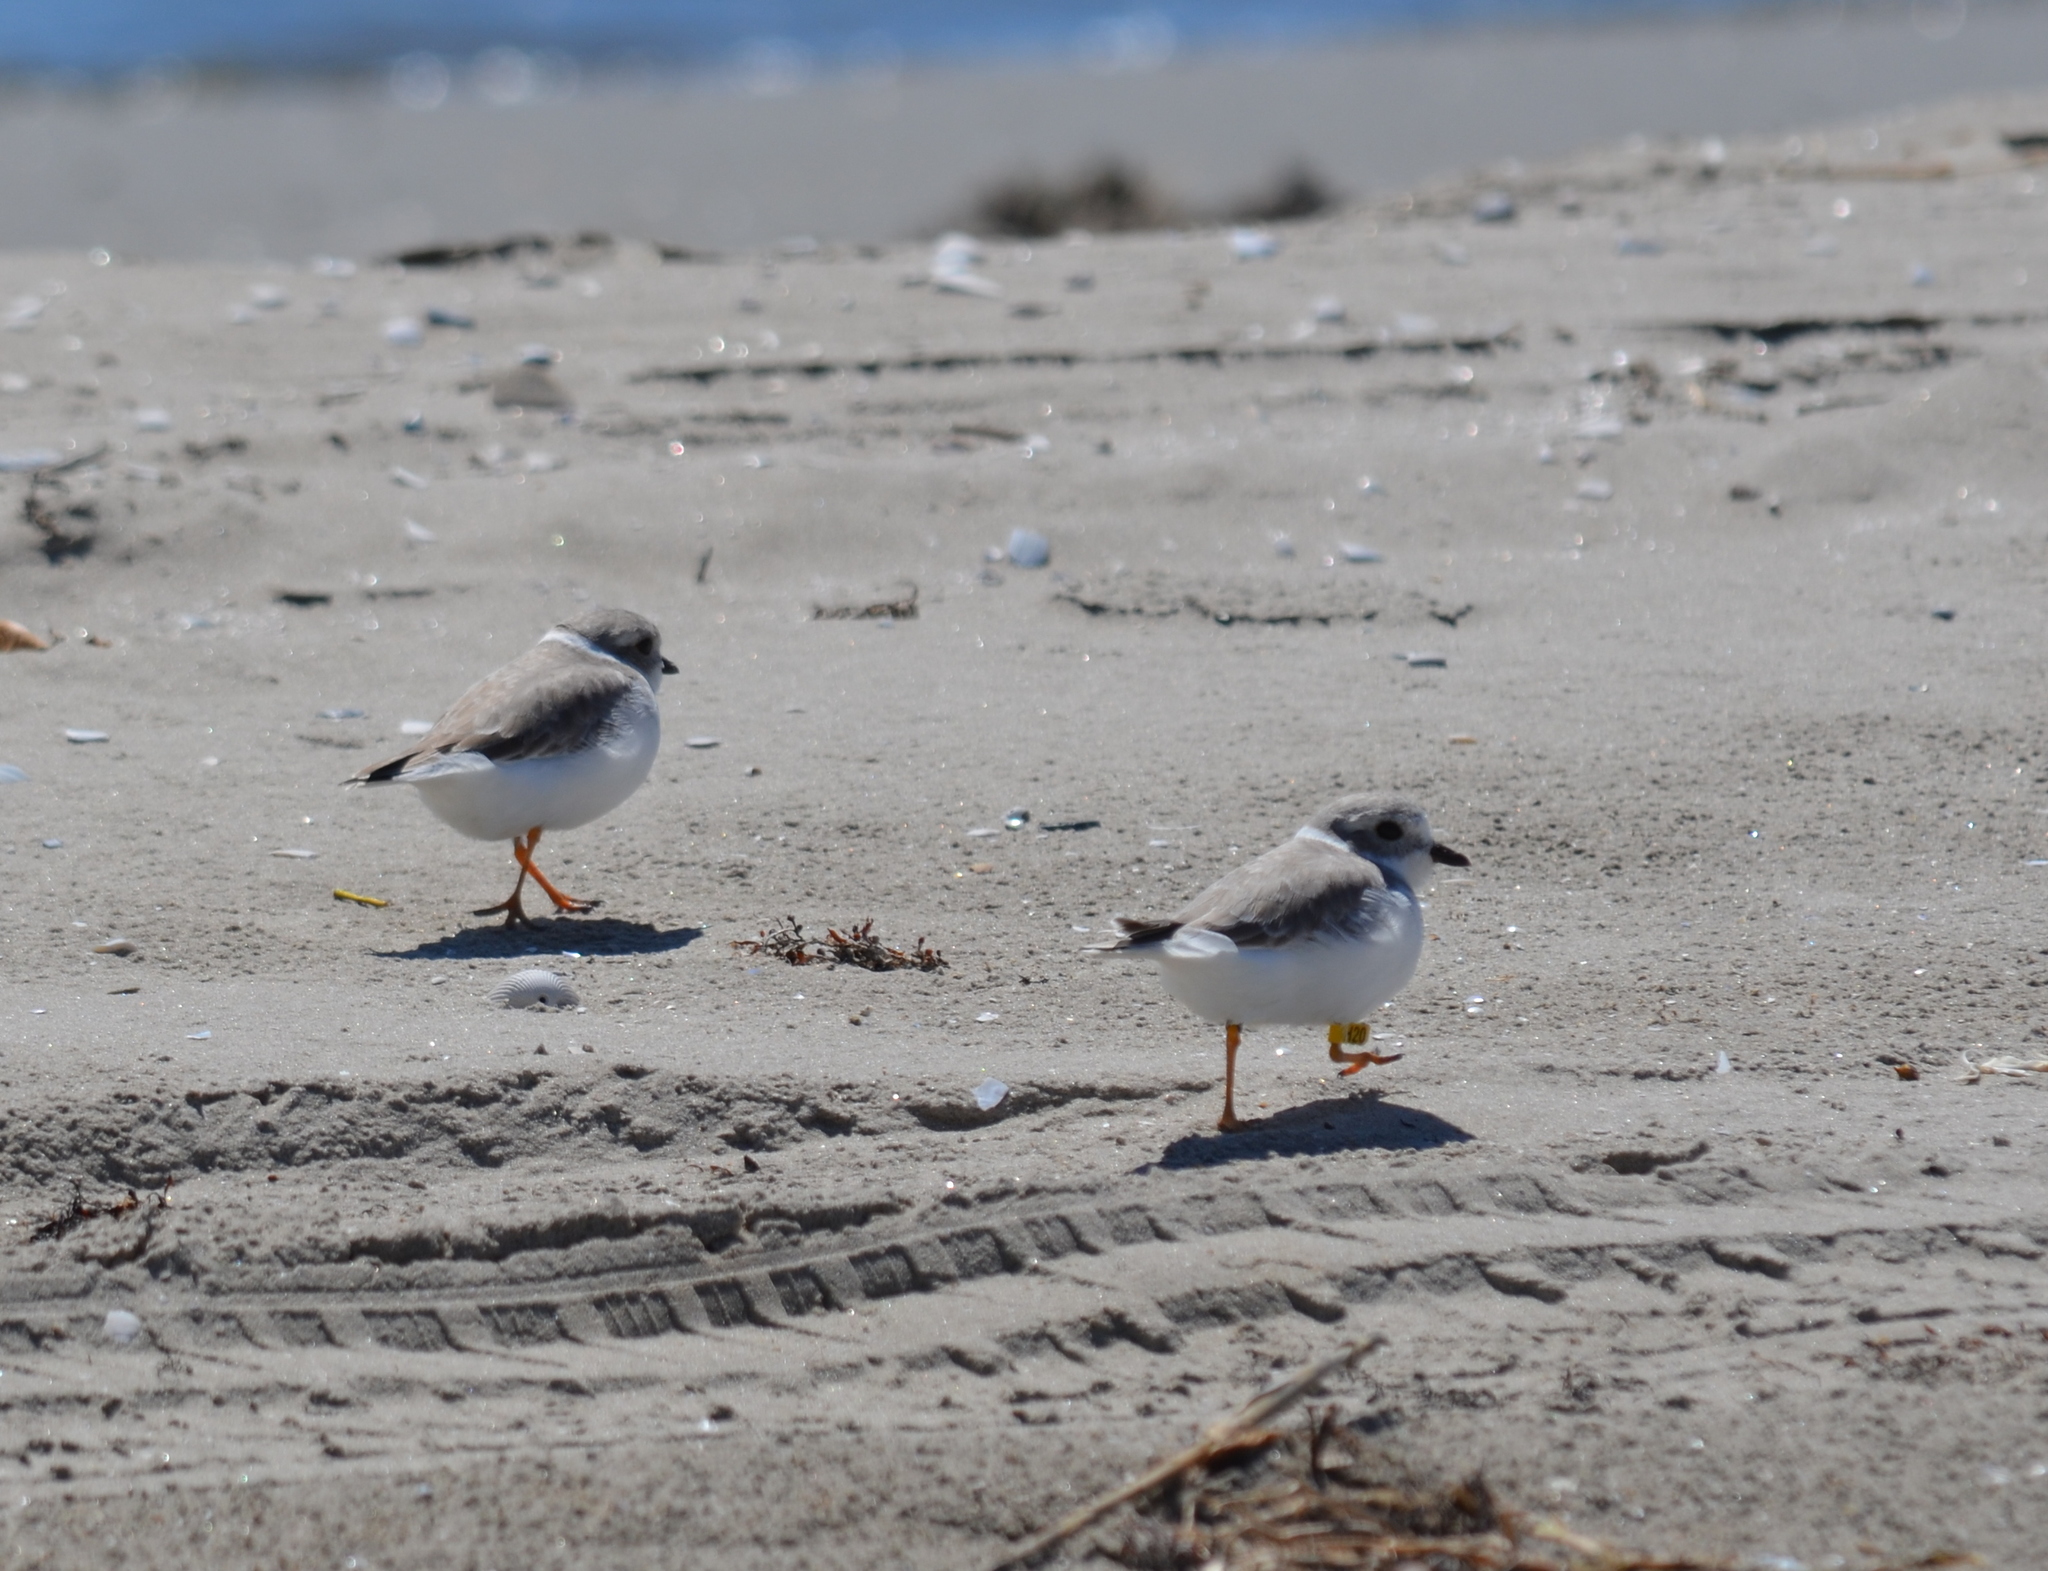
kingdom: Animalia
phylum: Chordata
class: Aves
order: Charadriiformes
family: Charadriidae
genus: Charadrius
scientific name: Charadrius melodus
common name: Piping plover
